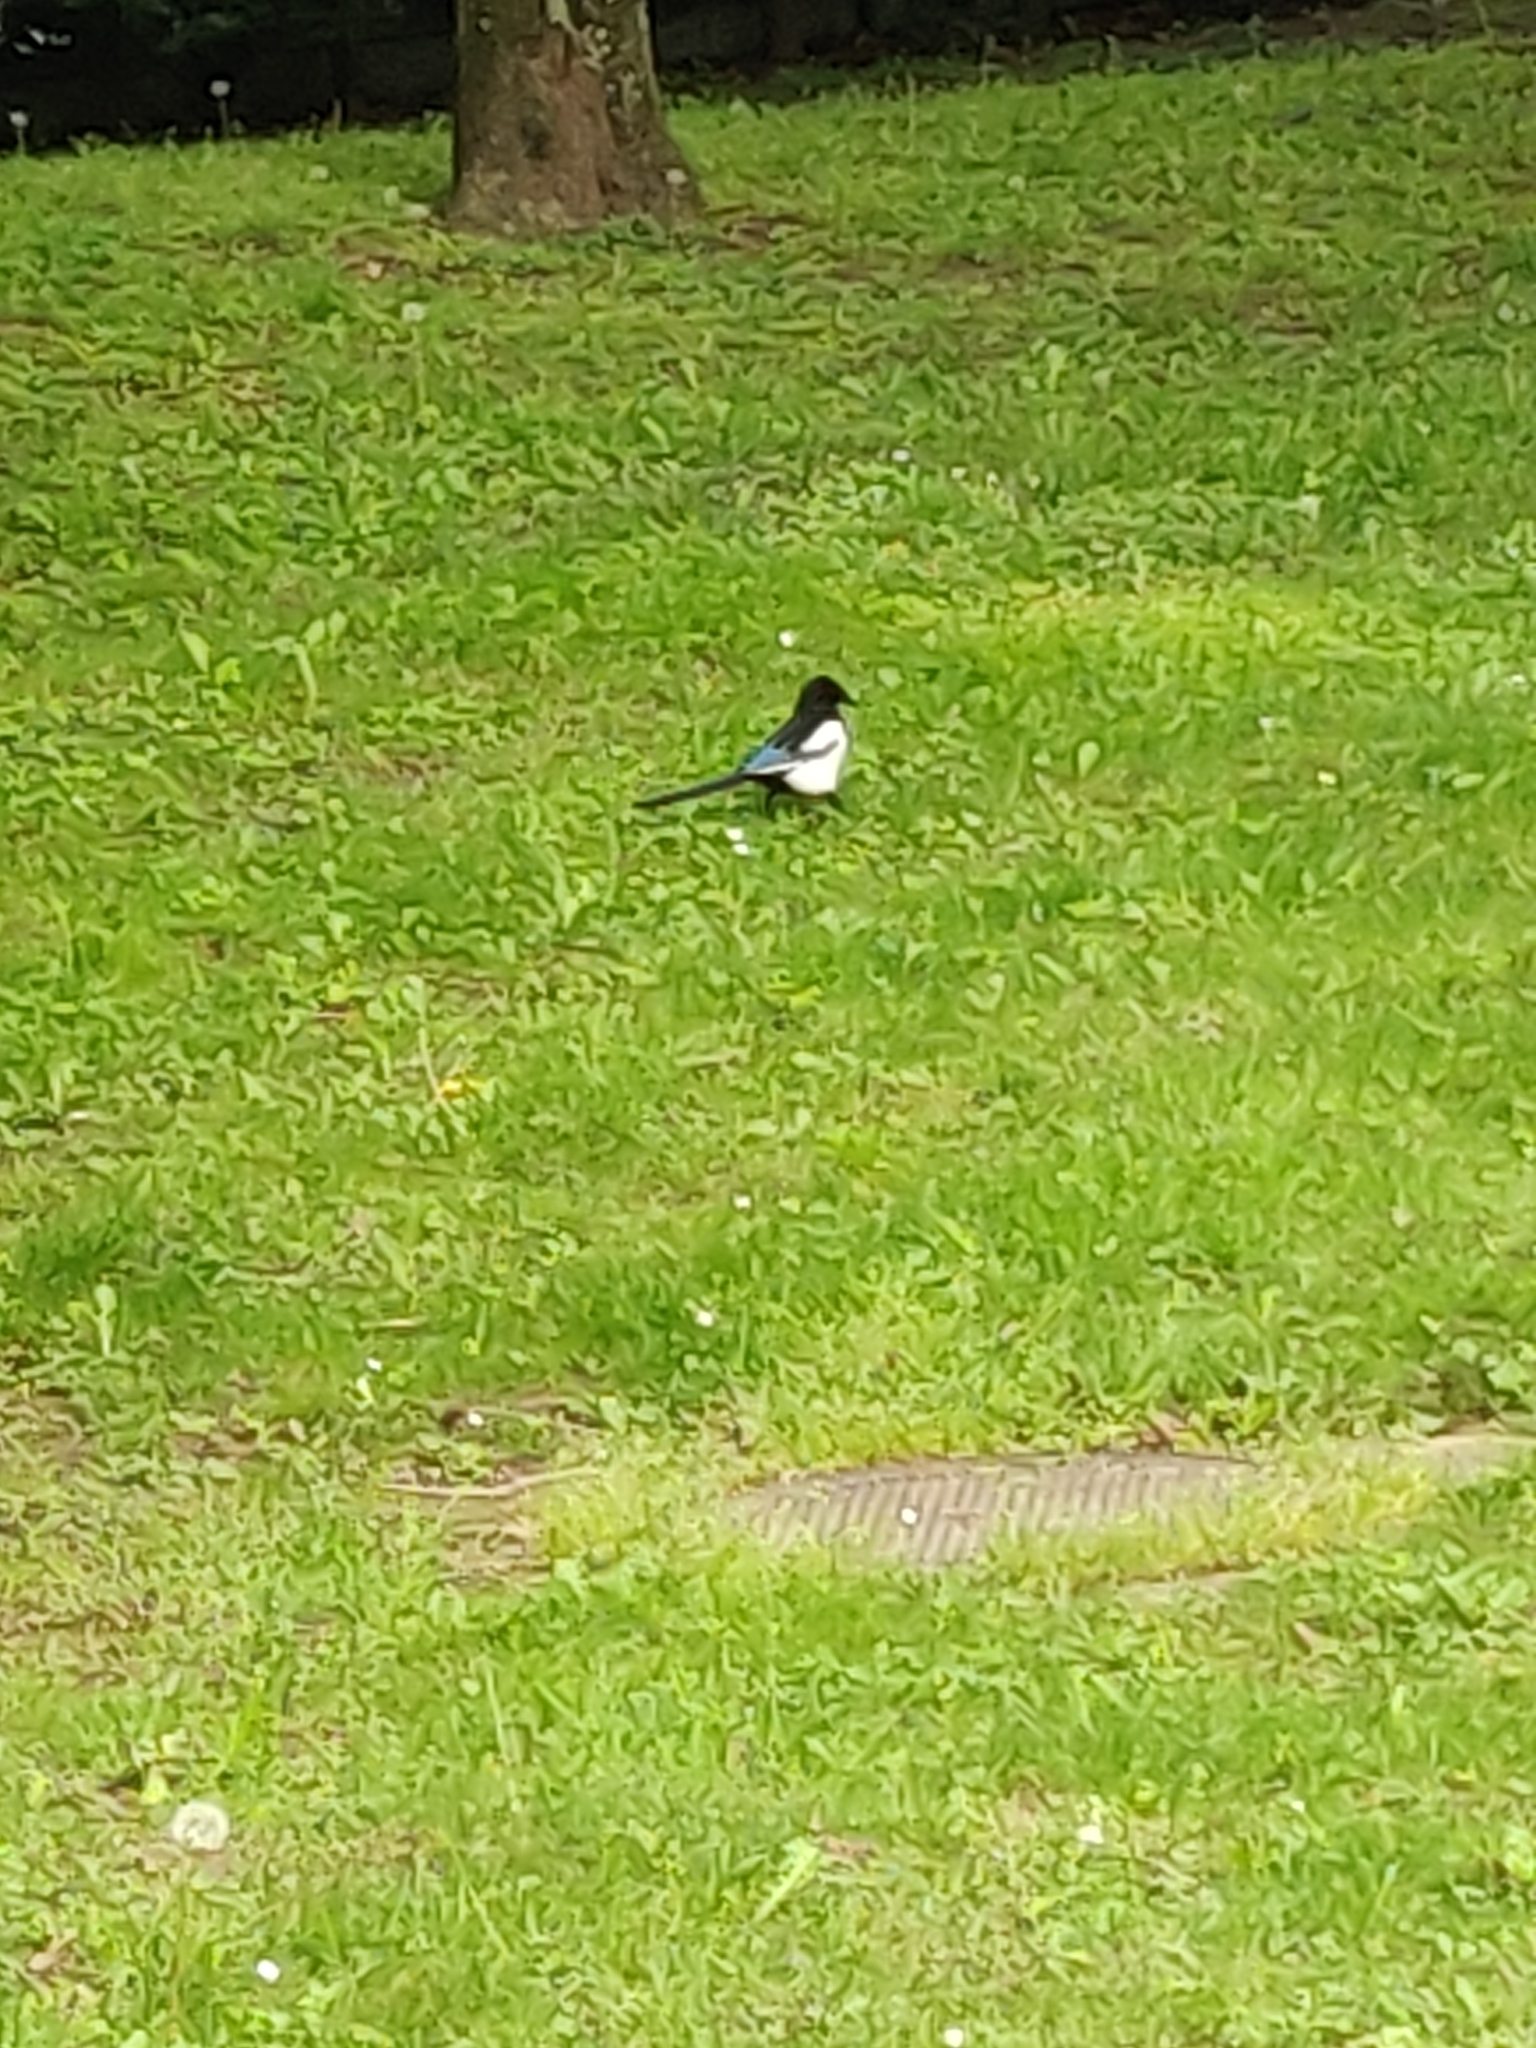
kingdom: Animalia
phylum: Chordata
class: Aves
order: Passeriformes
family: Corvidae
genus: Pica
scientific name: Pica pica
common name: Eurasian magpie
